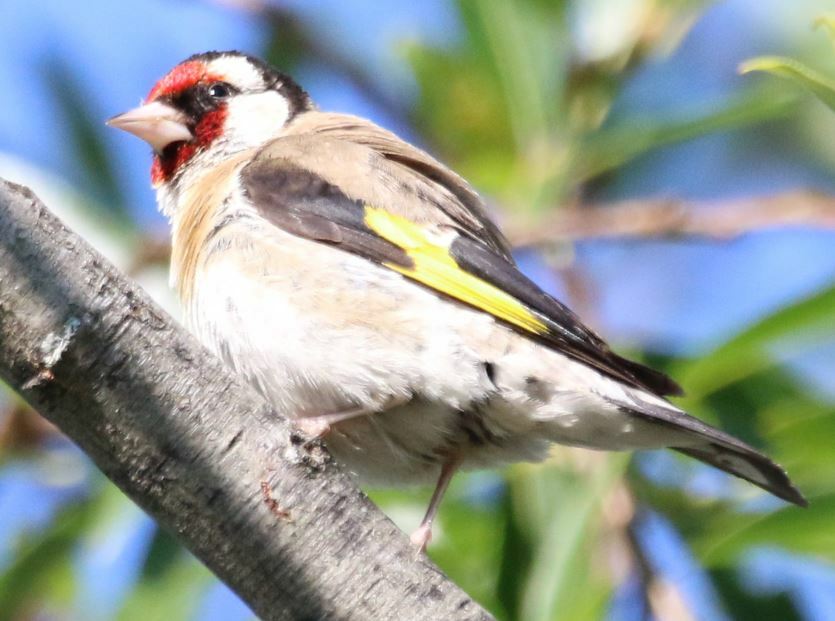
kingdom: Animalia
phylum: Chordata
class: Aves
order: Passeriformes
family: Fringillidae
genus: Carduelis
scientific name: Carduelis carduelis
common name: European goldfinch
